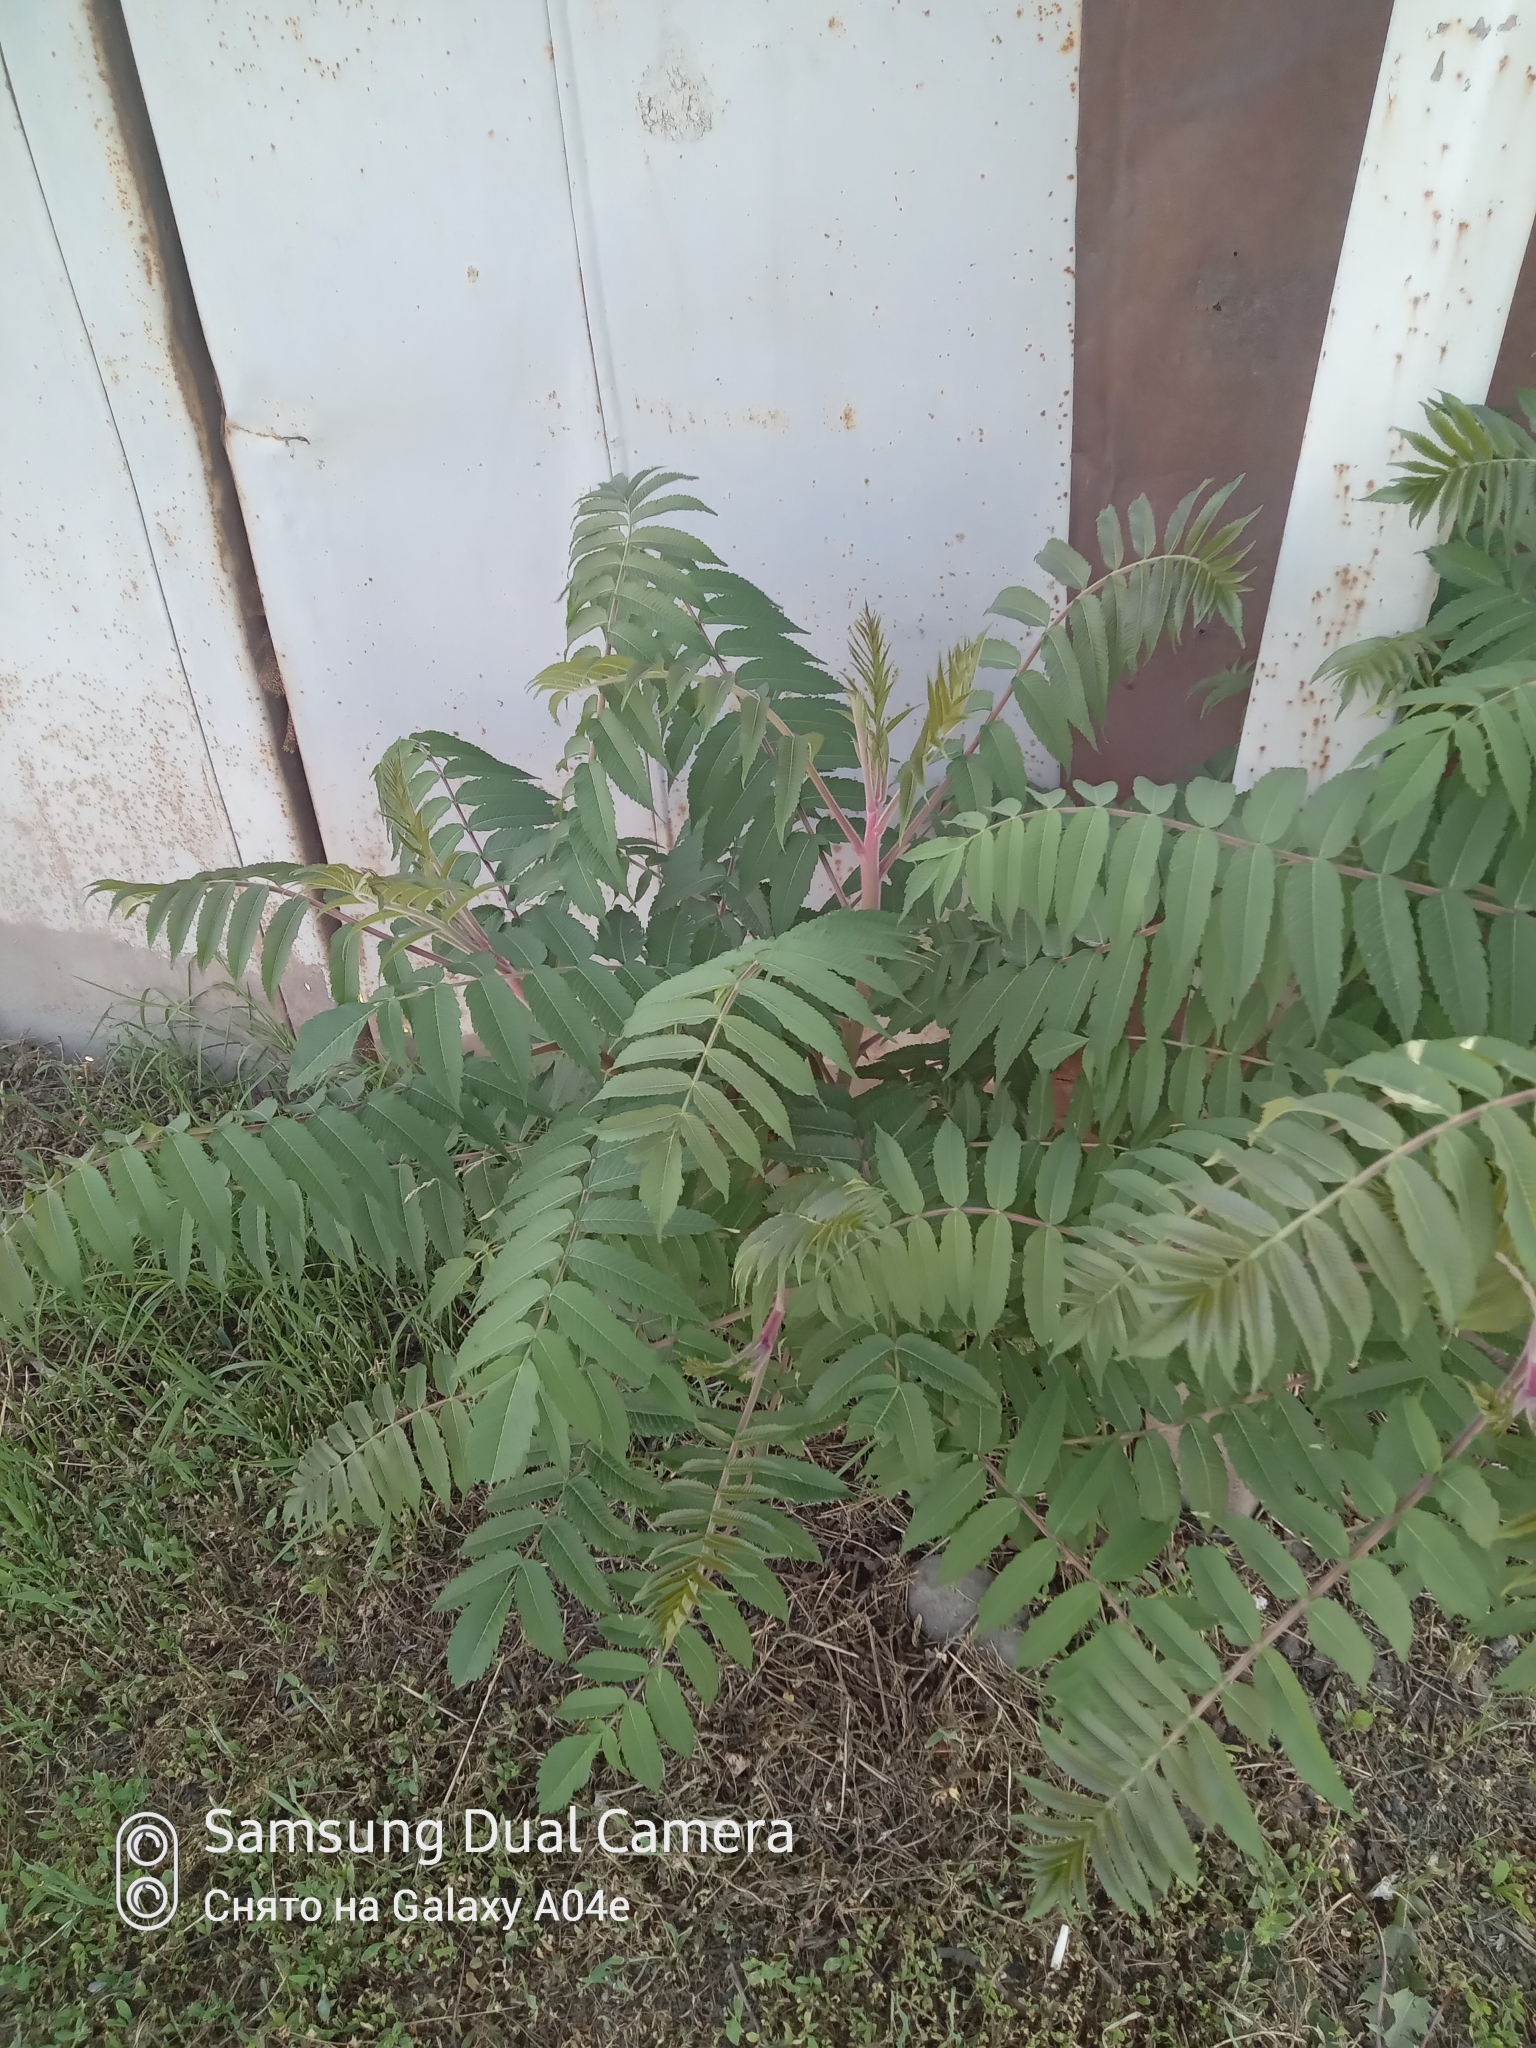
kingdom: Plantae
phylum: Tracheophyta
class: Magnoliopsida
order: Sapindales
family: Anacardiaceae
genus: Rhus
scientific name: Rhus typhina
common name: Staghorn sumac
